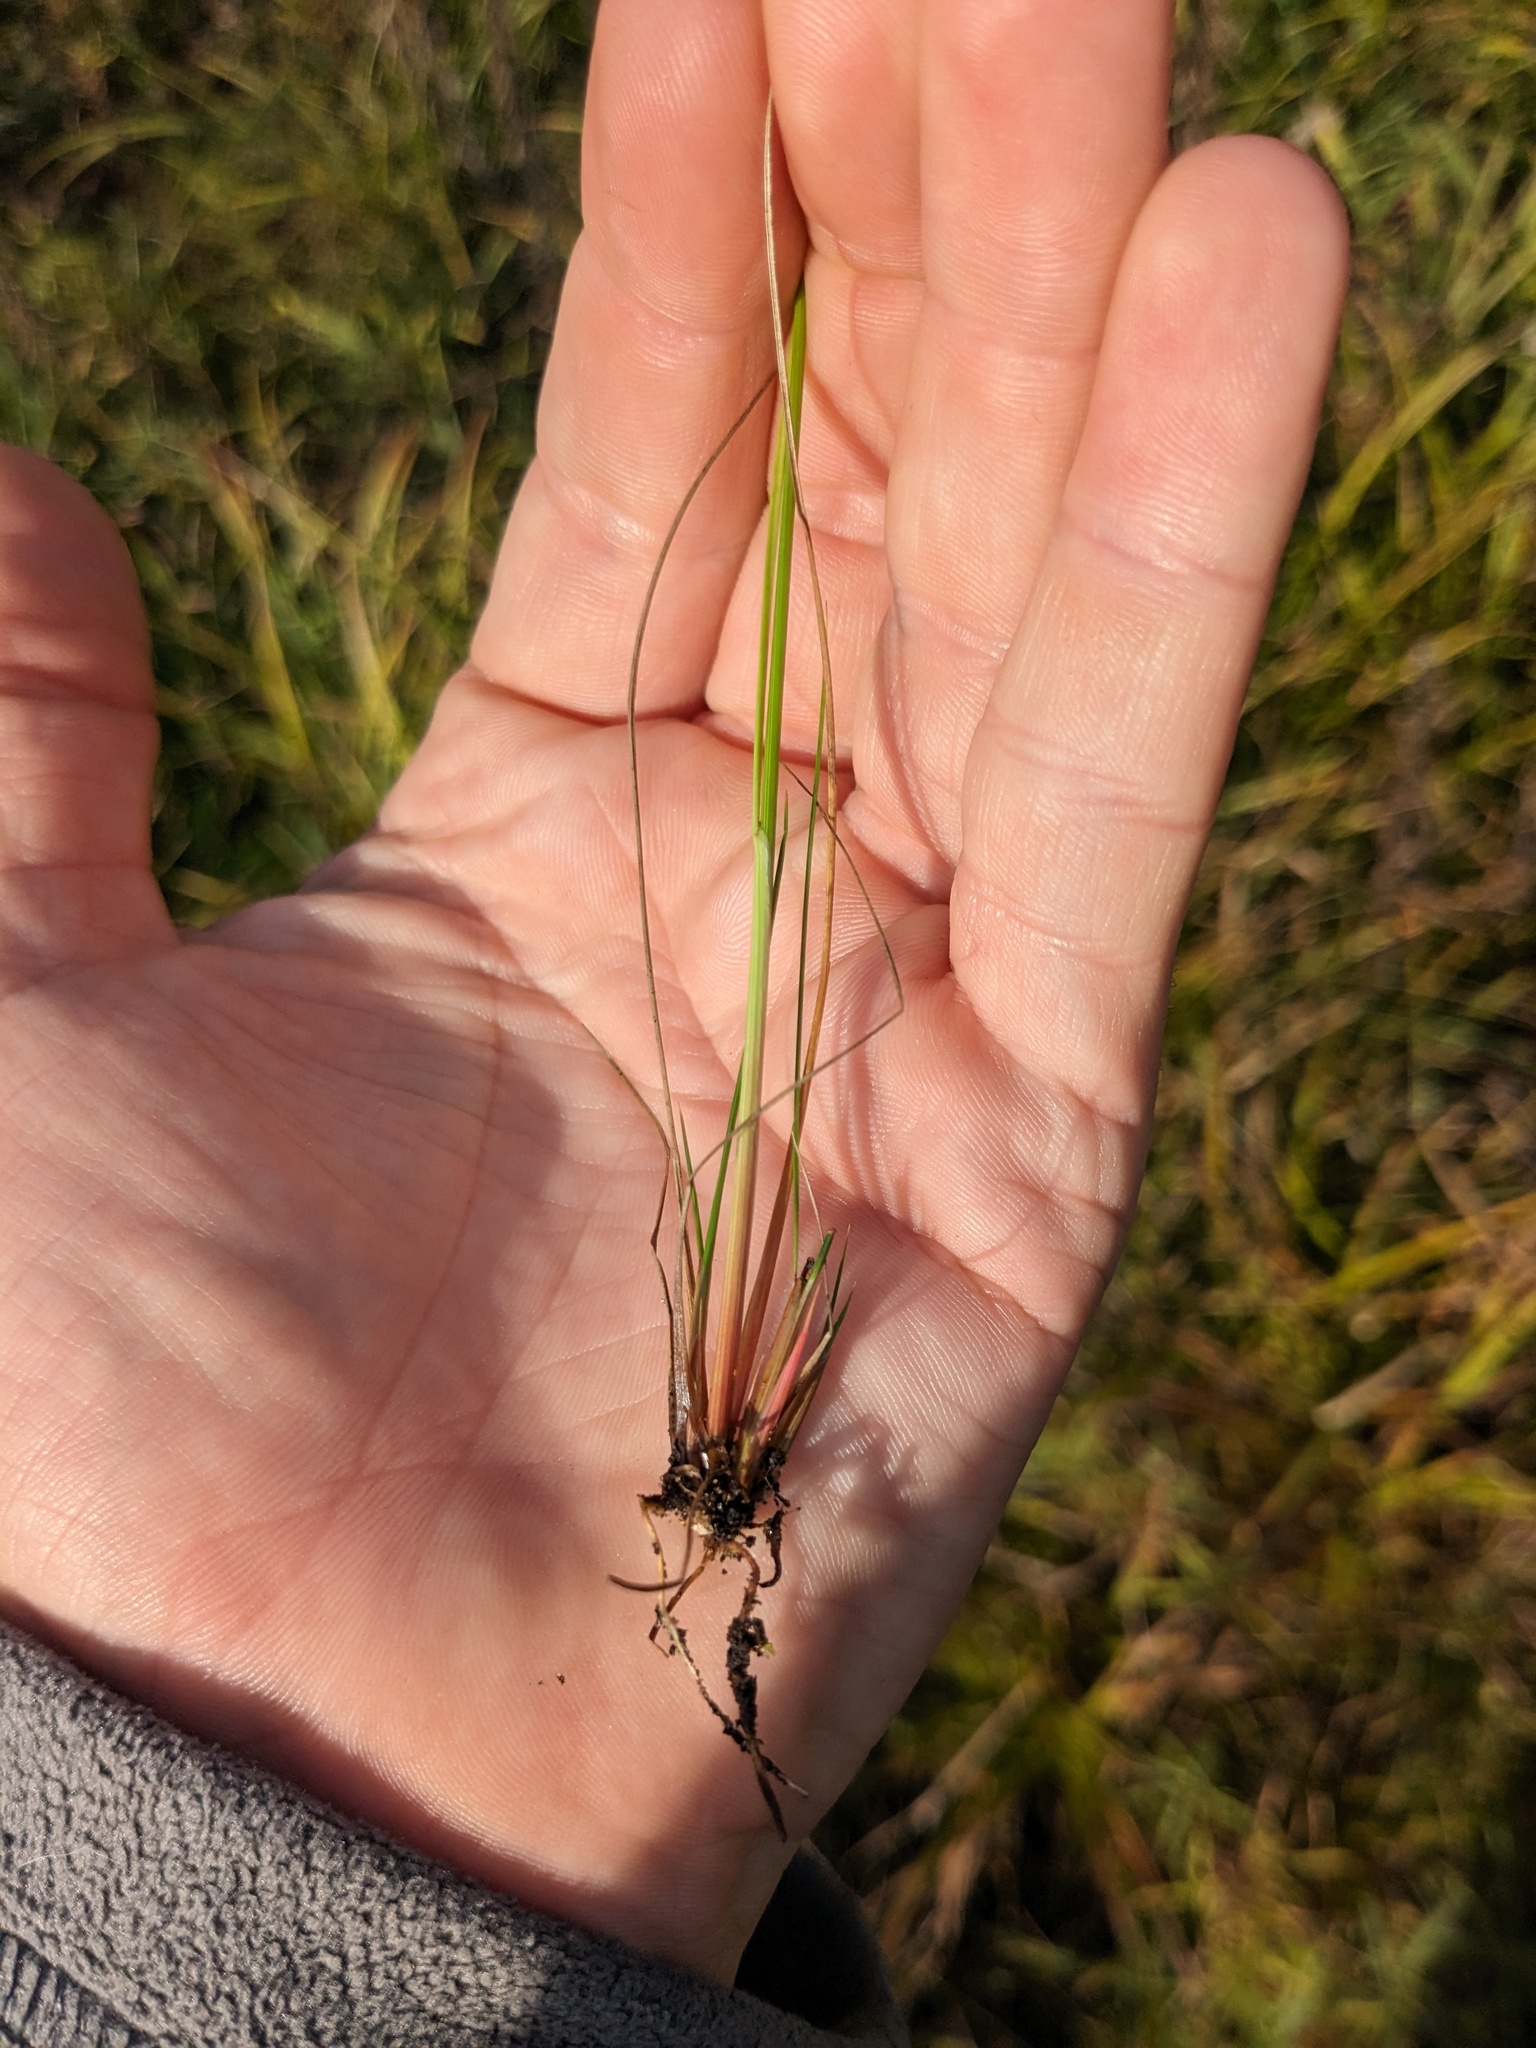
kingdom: Plantae
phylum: Tracheophyta
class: Liliopsida
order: Poales
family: Juncaceae
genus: Juncus
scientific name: Juncus dudleyi
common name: Dudley's rush
